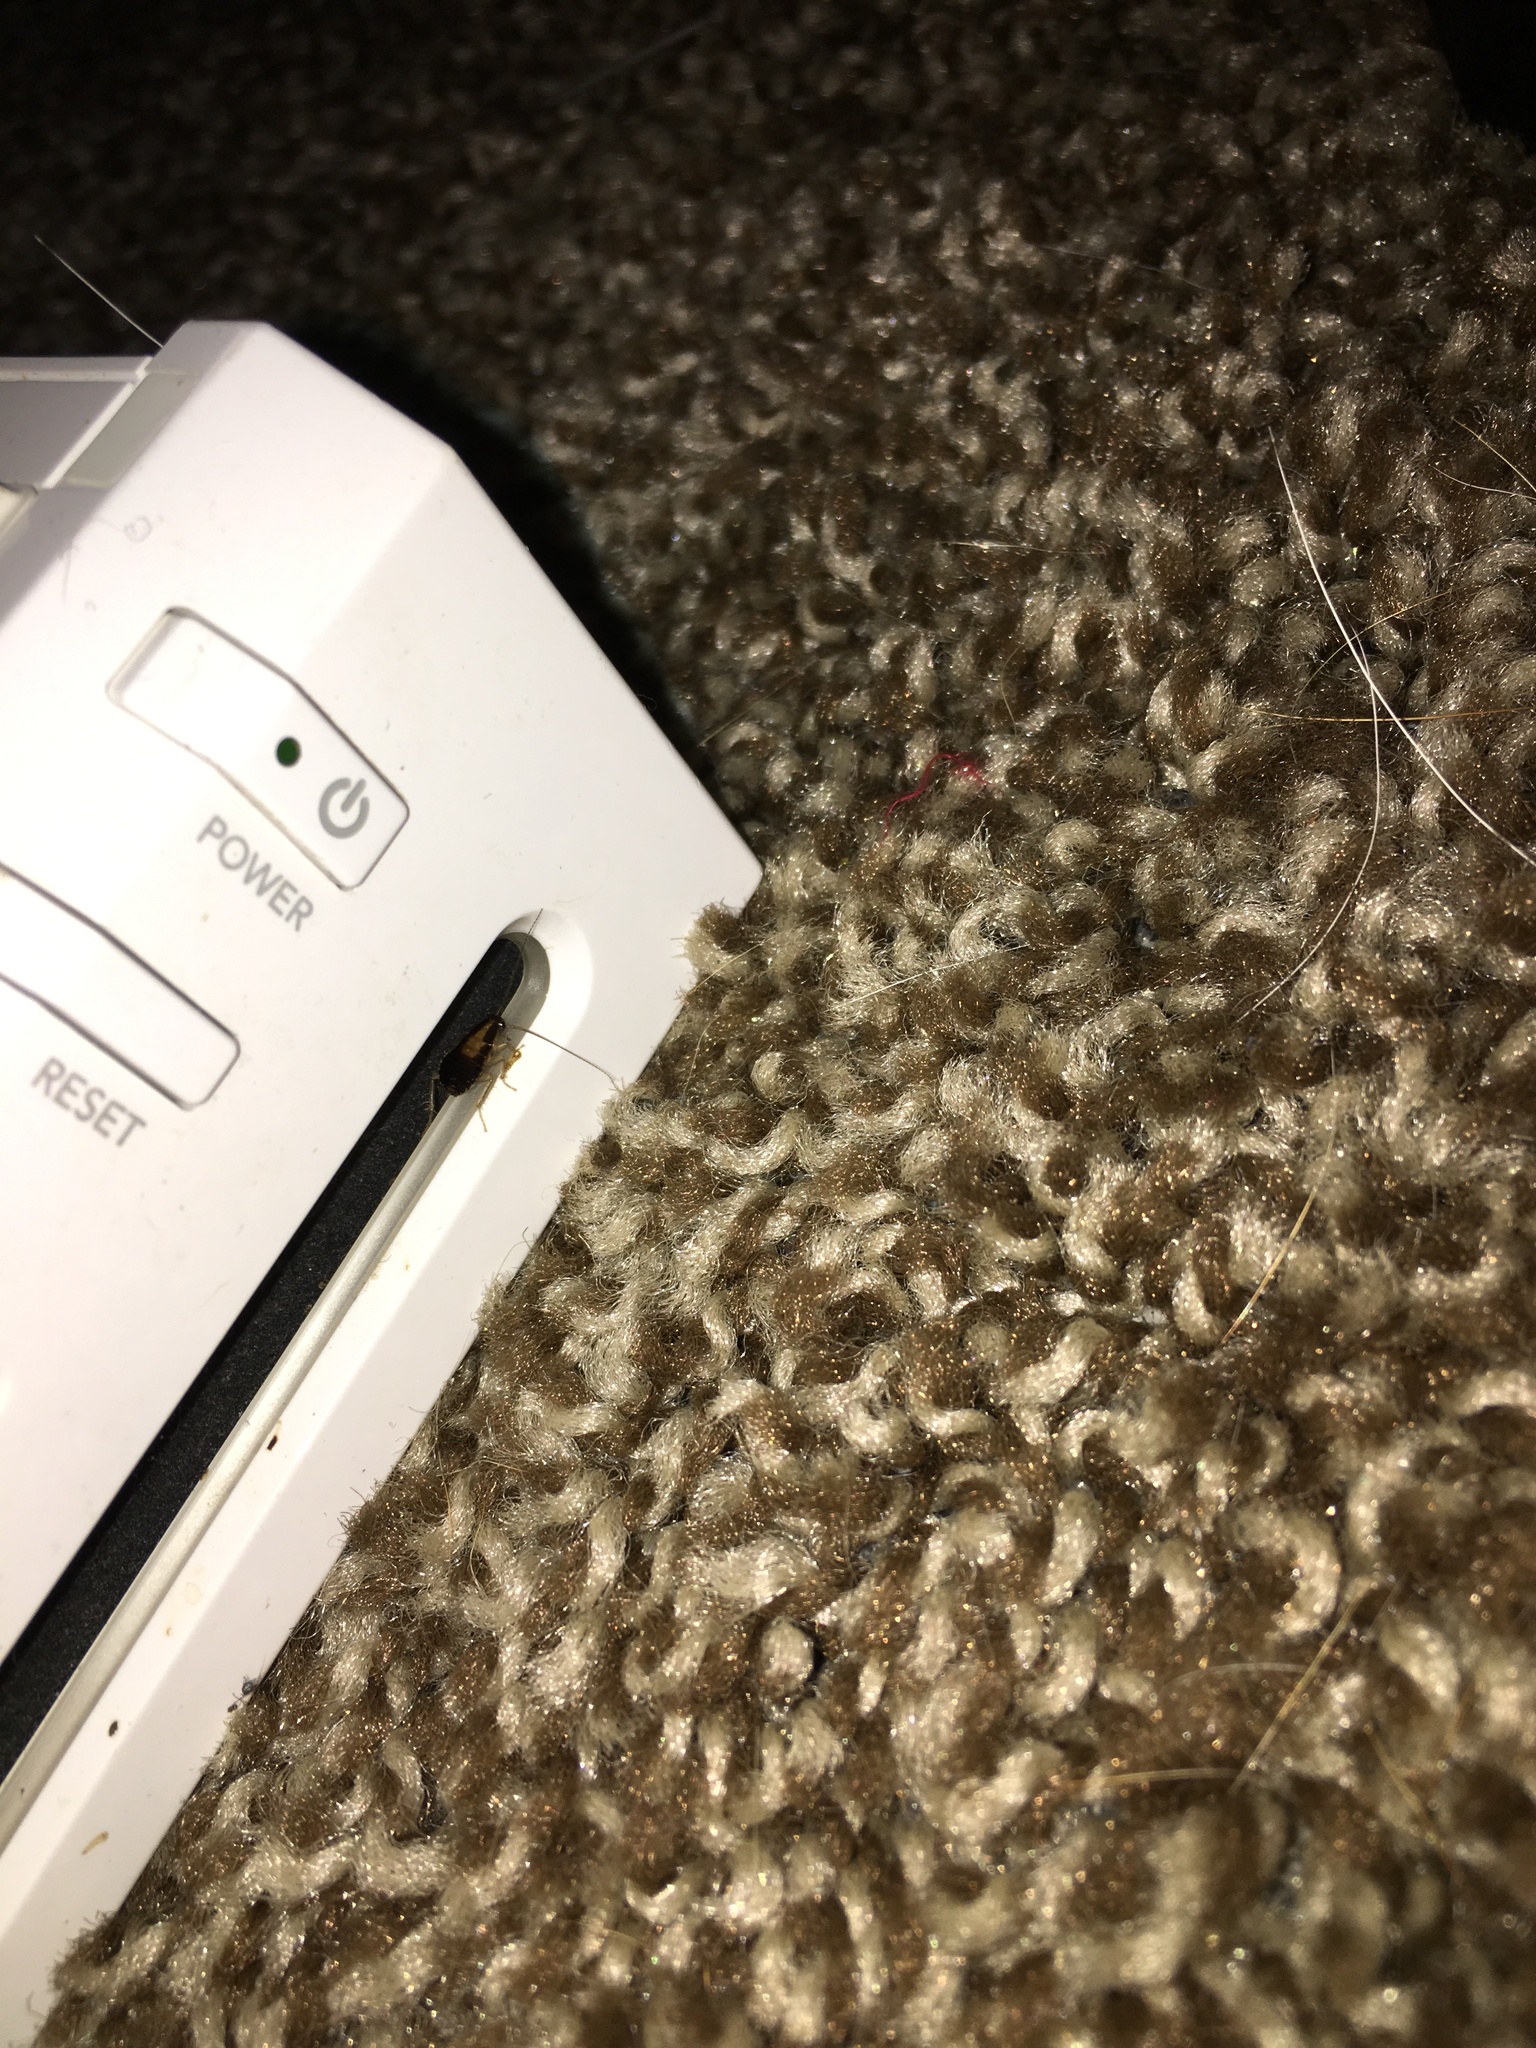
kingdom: Animalia
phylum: Arthropoda
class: Insecta
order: Blattodea
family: Ectobiidae
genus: Blattella
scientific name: Blattella germanica
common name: German cockroach
